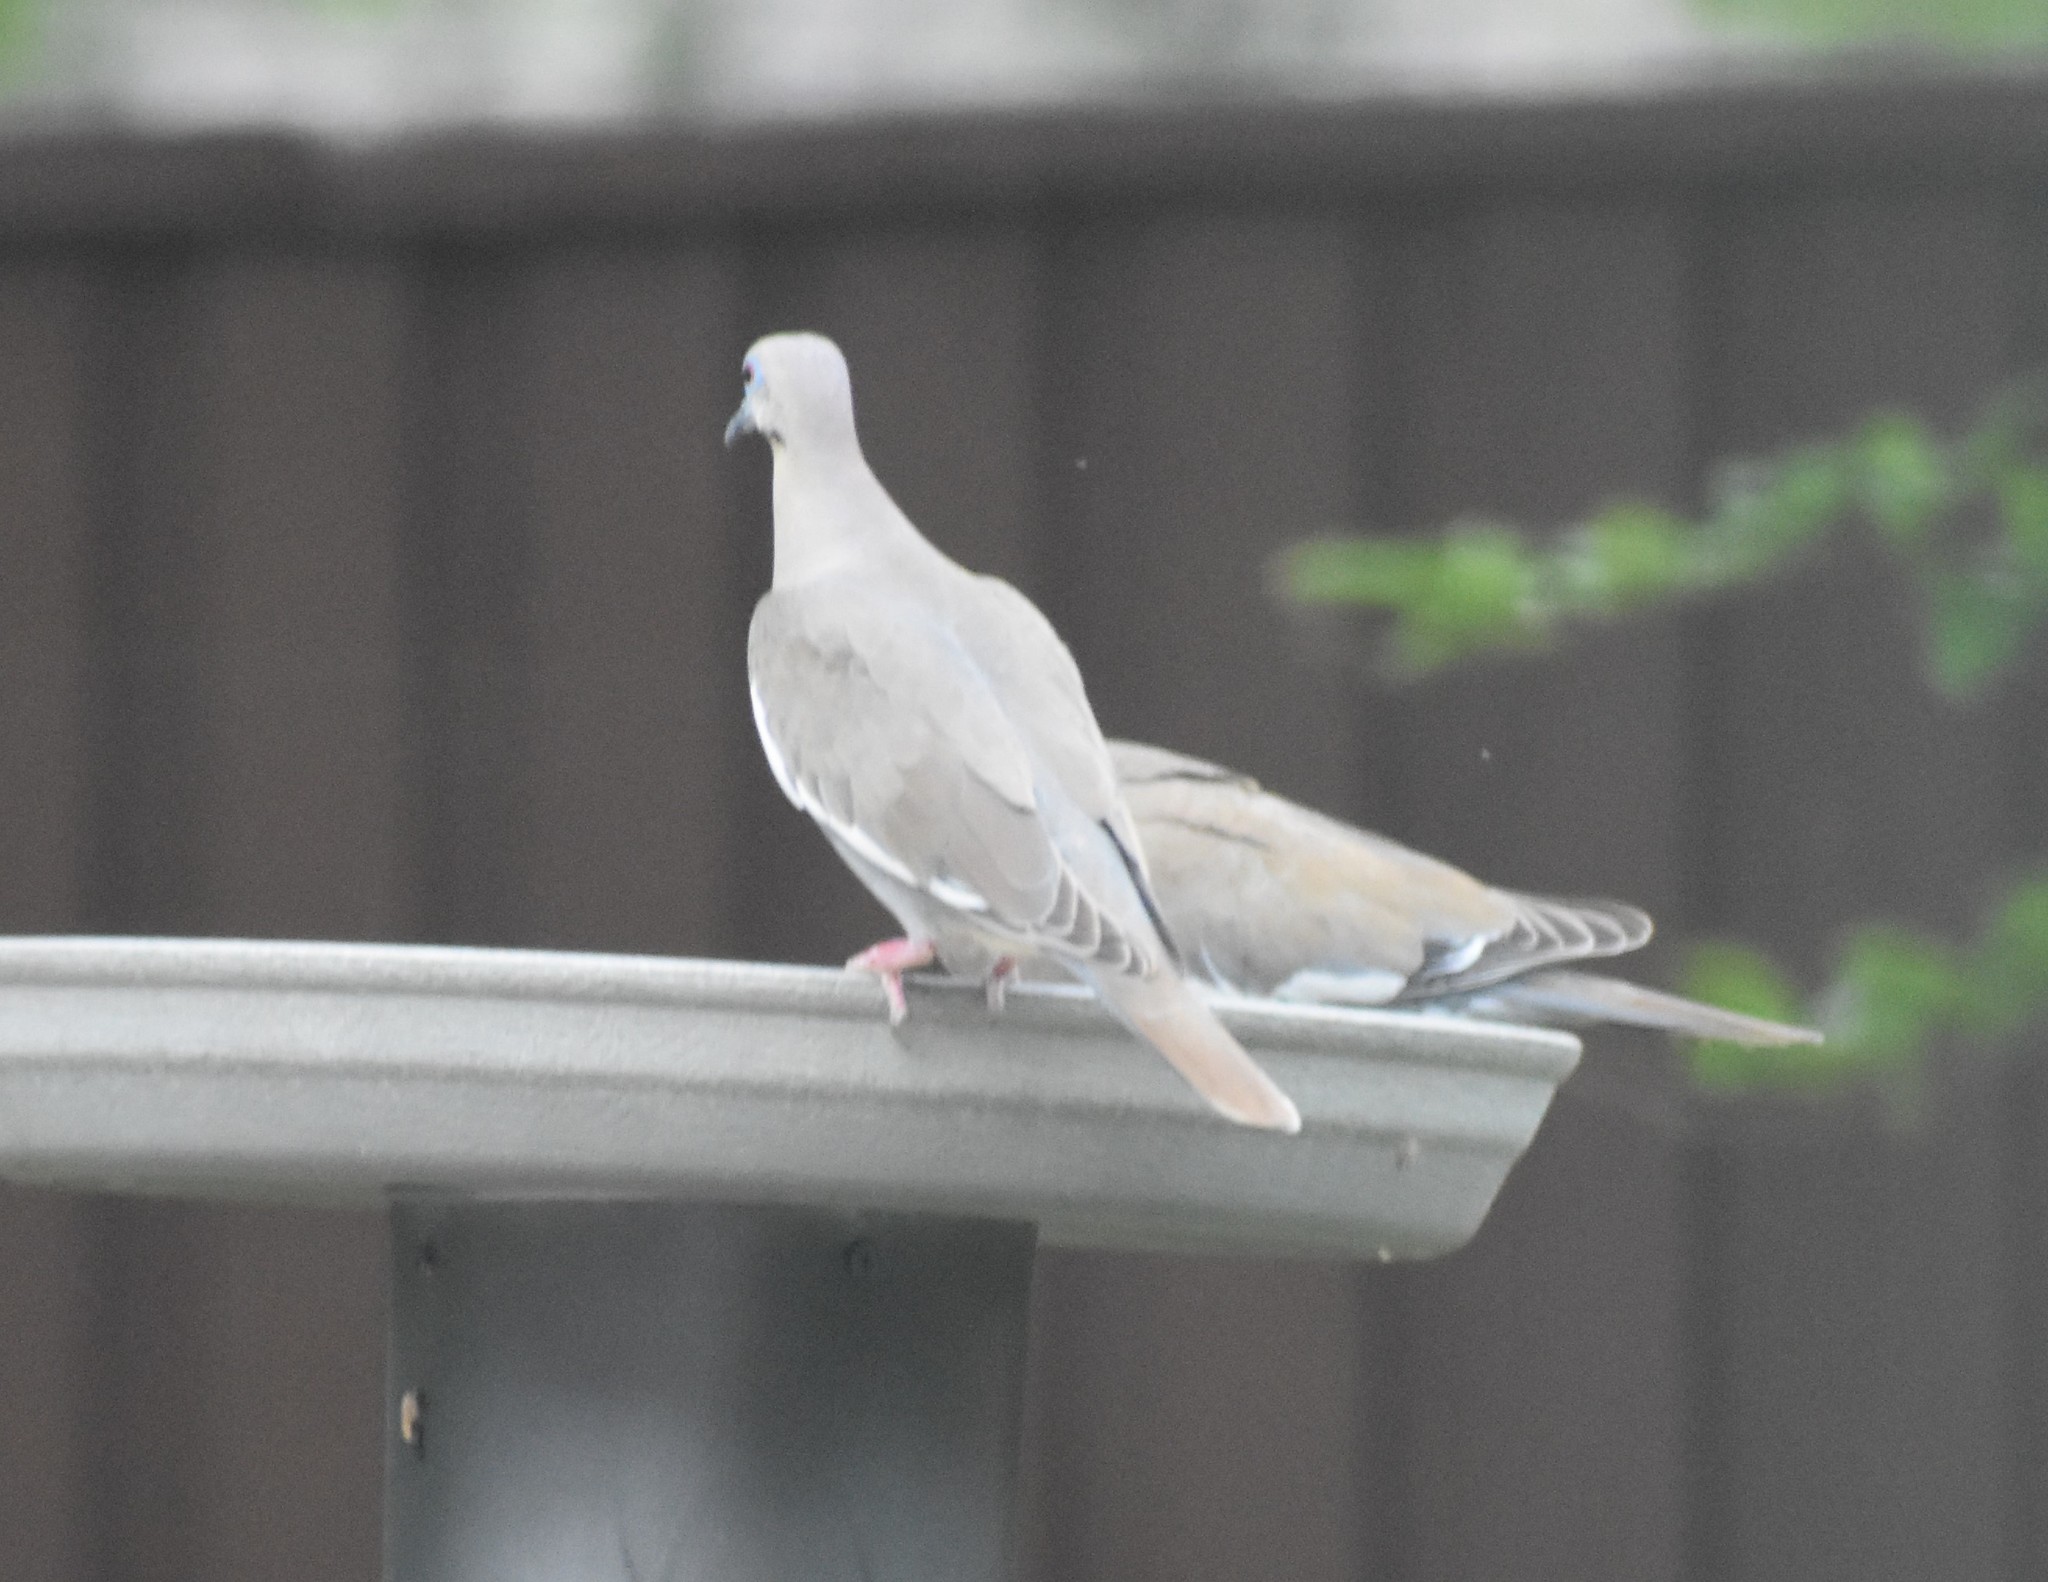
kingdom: Animalia
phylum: Chordata
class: Aves
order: Columbiformes
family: Columbidae
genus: Zenaida
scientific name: Zenaida asiatica
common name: White-winged dove
